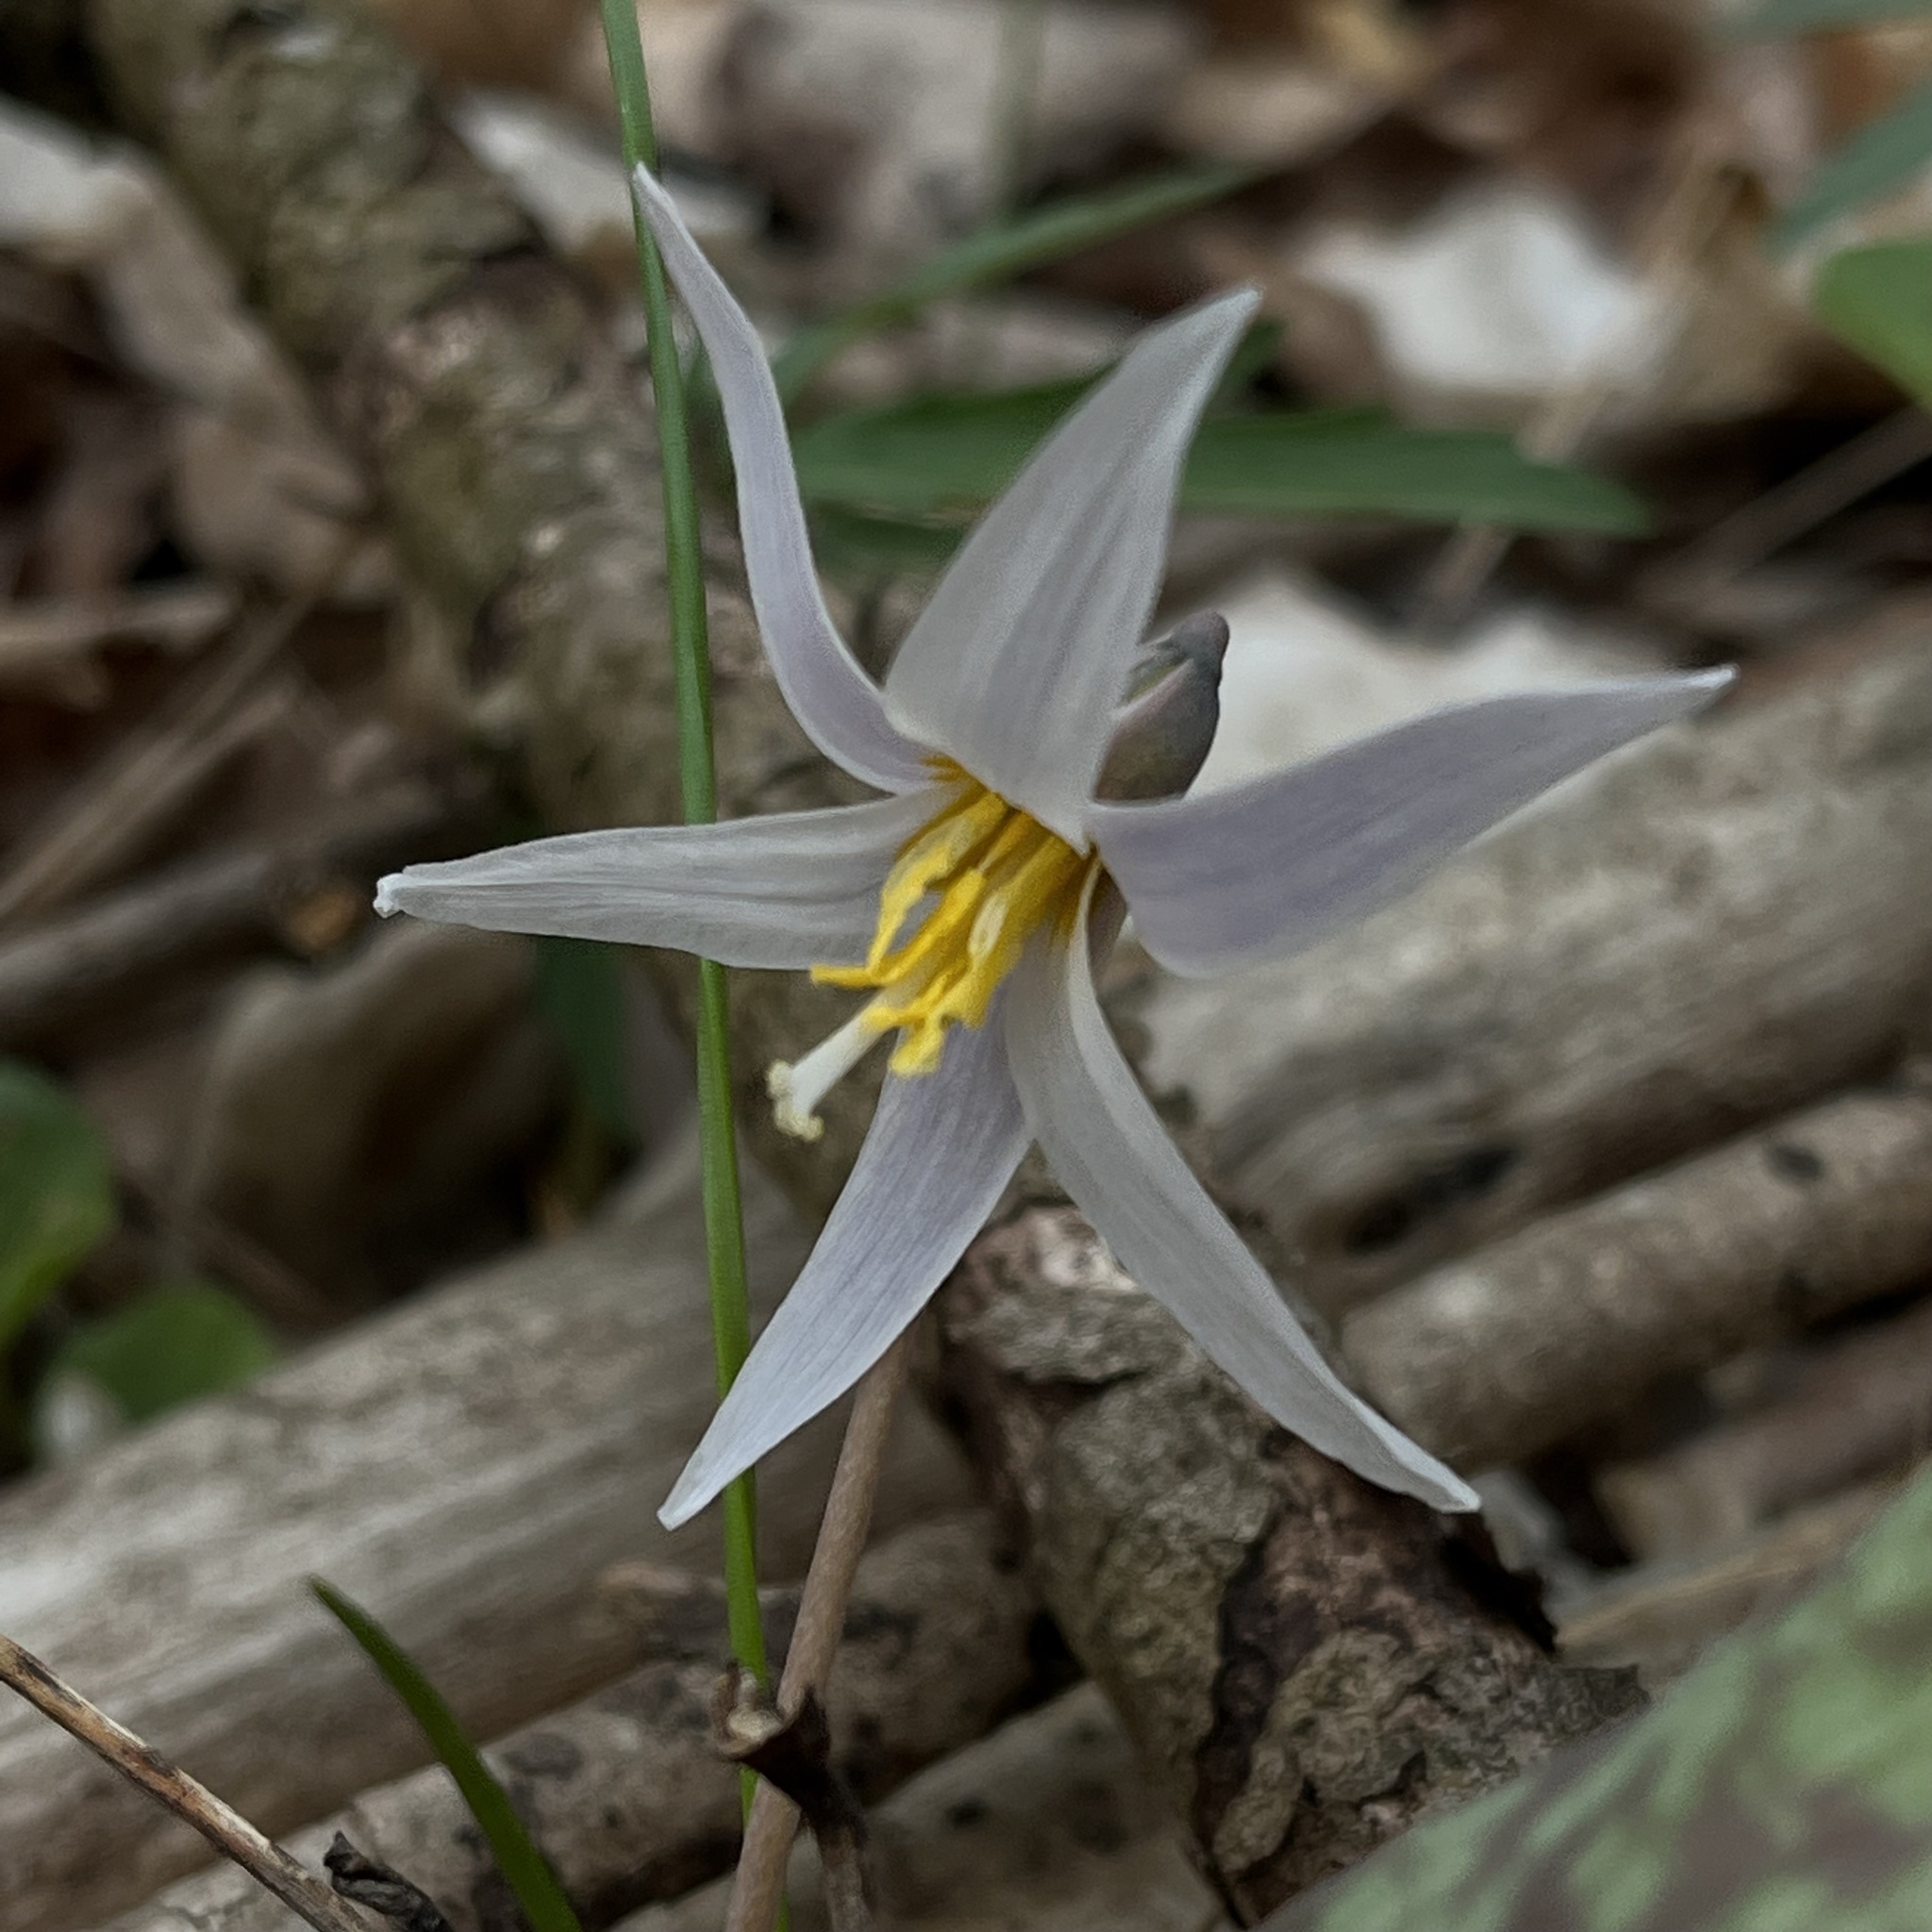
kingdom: Plantae
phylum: Tracheophyta
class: Liliopsida
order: Liliales
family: Liliaceae
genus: Erythronium
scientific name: Erythronium albidum
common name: White trout-lily
